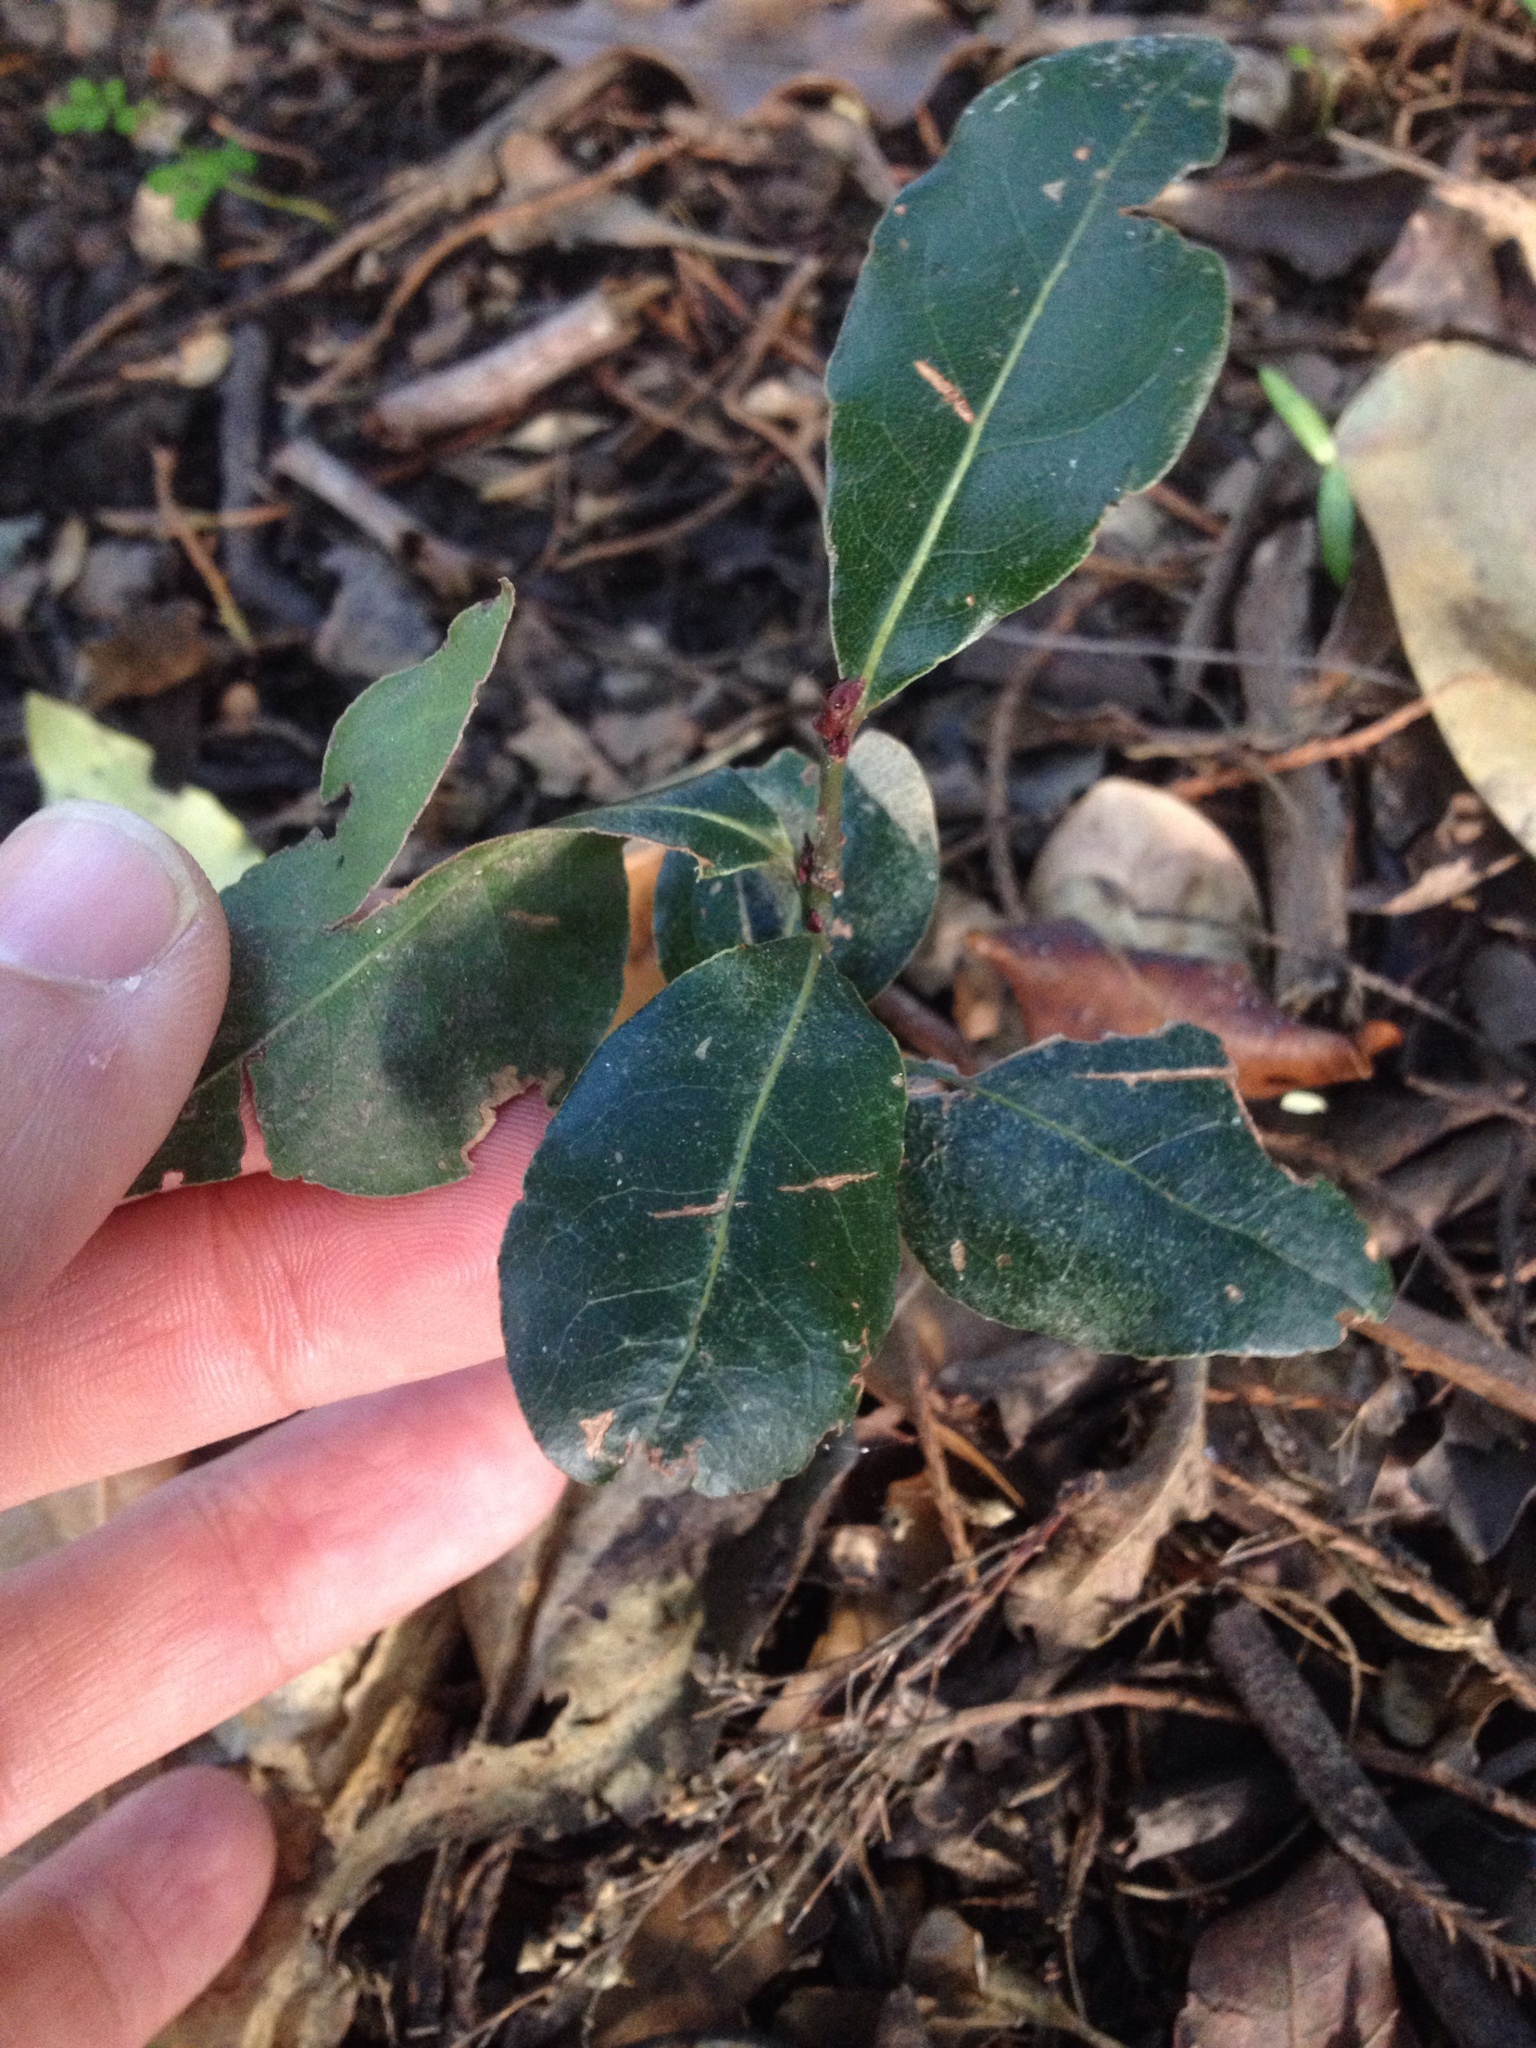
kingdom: Plantae
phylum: Tracheophyta
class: Magnoliopsida
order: Laurales
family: Lauraceae
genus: Laurus
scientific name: Laurus nobilis
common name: Bay
